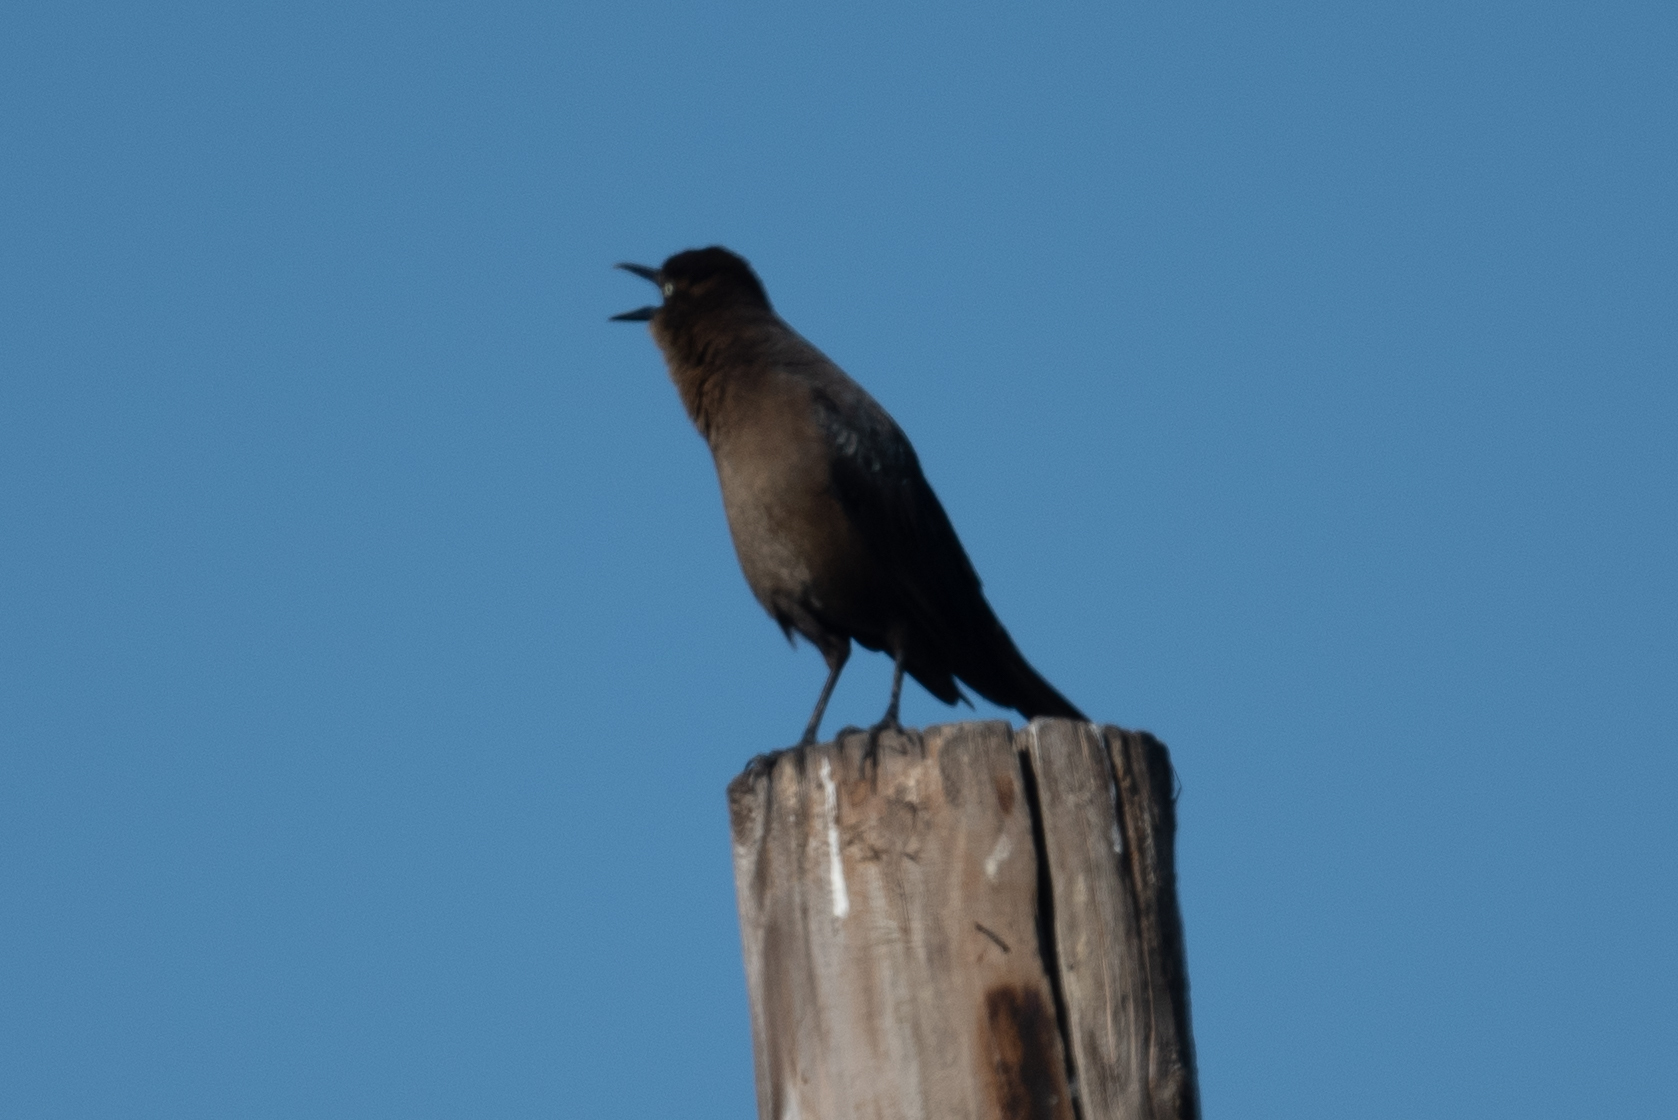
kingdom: Animalia
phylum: Chordata
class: Aves
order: Passeriformes
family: Icteridae
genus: Quiscalus
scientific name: Quiscalus mexicanus
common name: Great-tailed grackle
